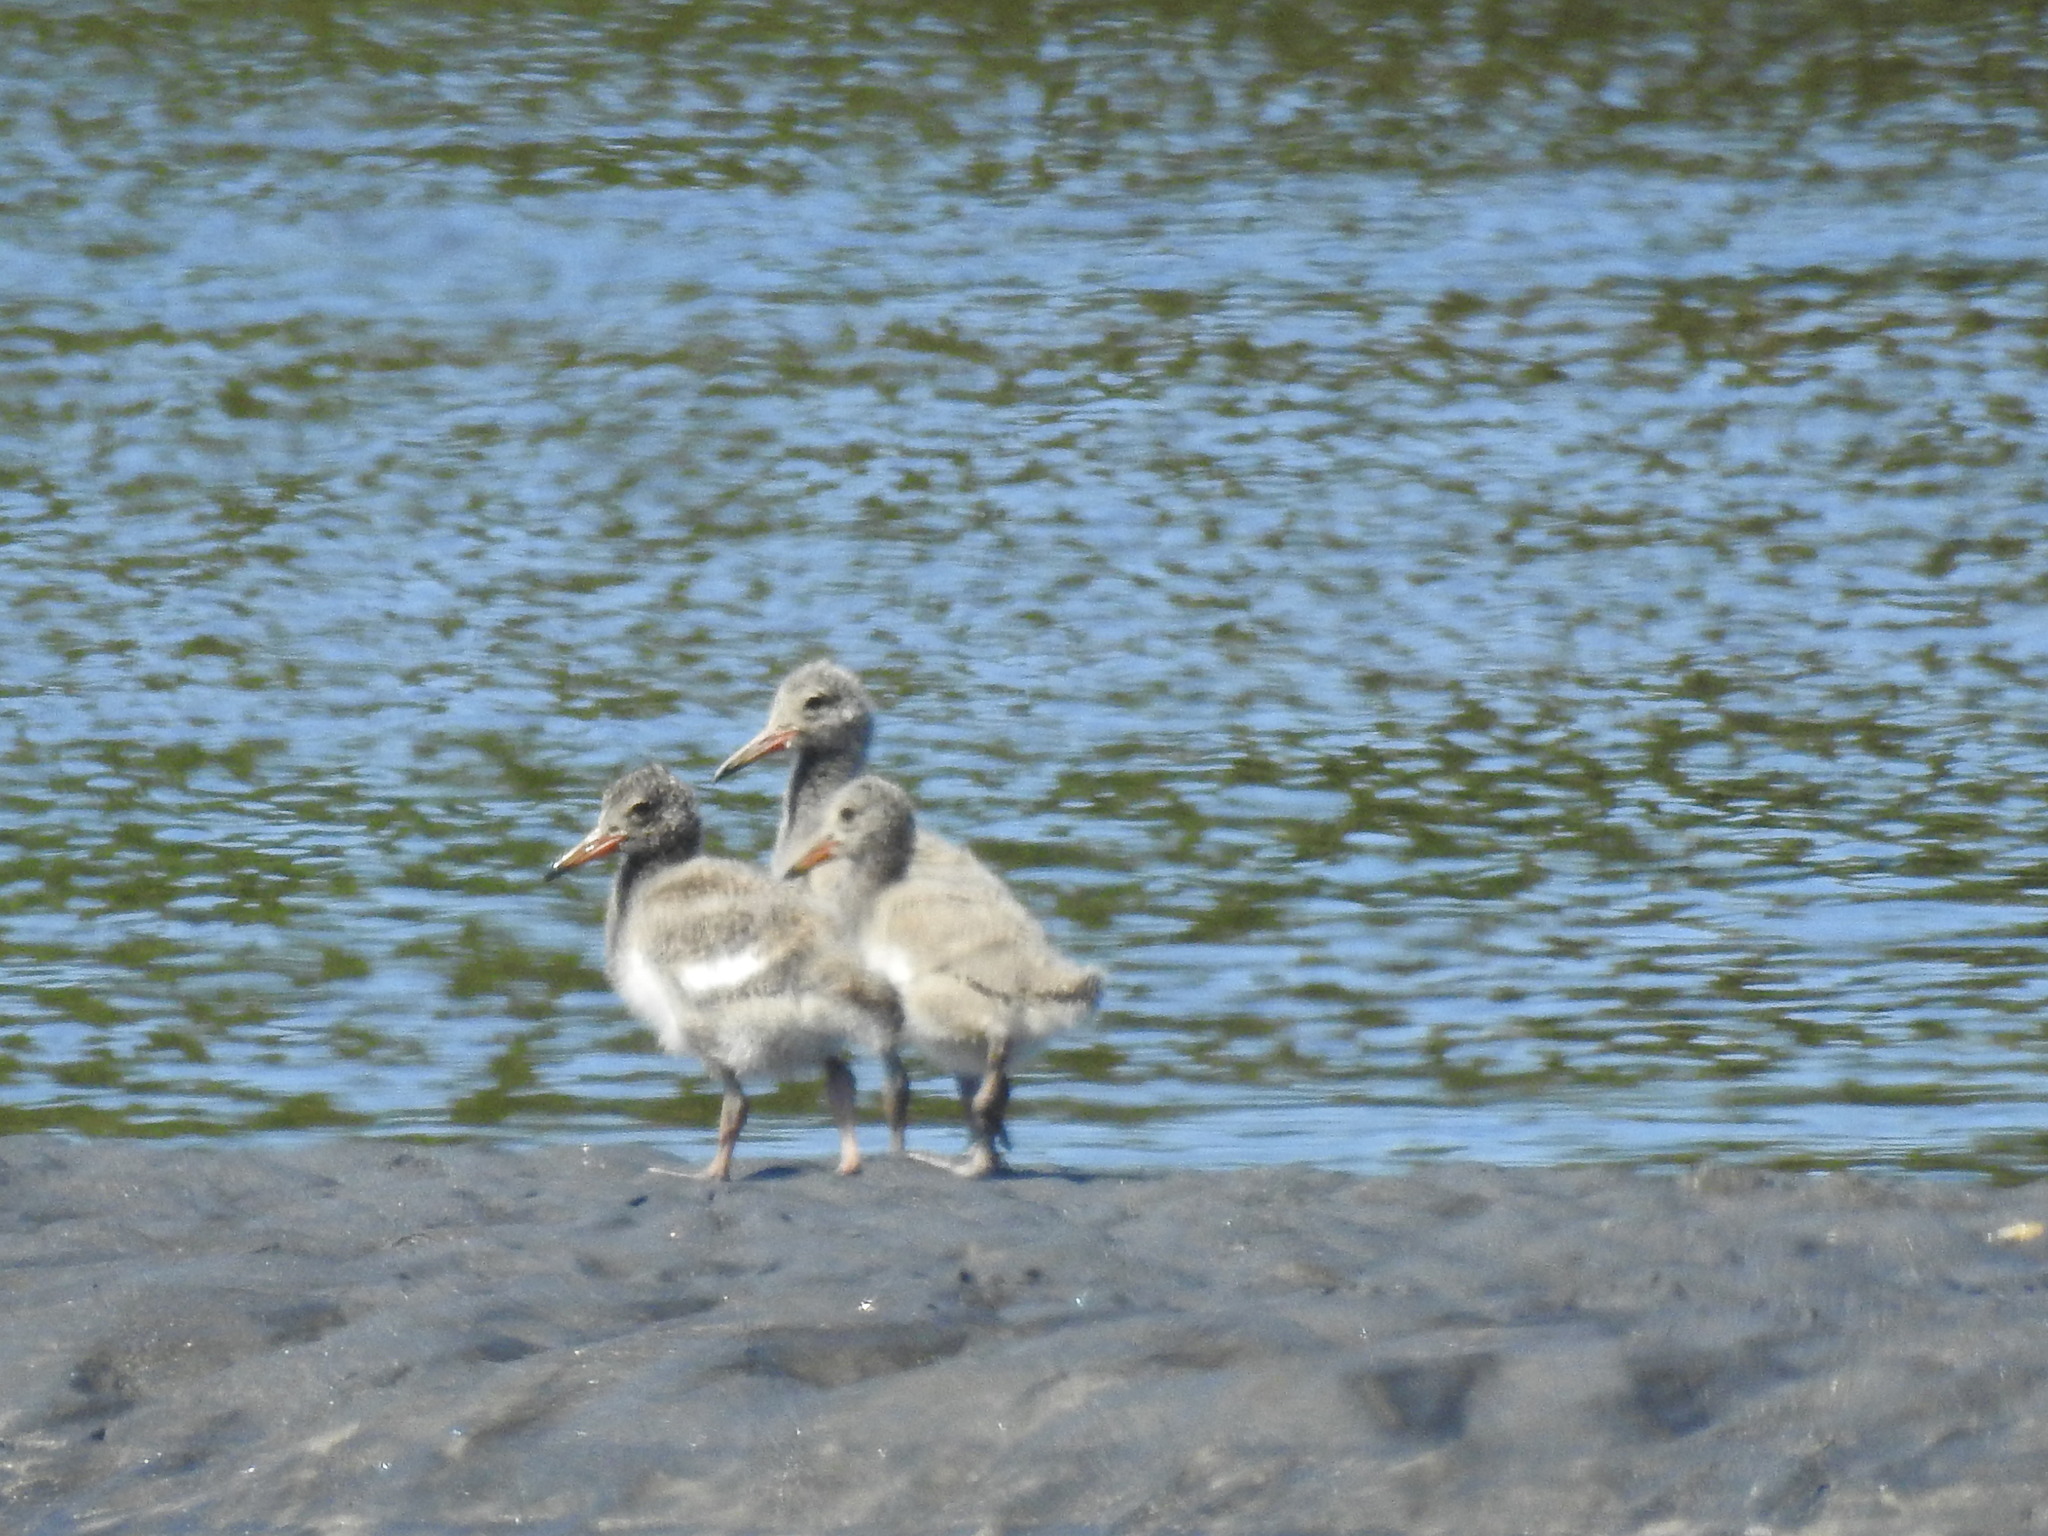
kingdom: Animalia
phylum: Chordata
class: Aves
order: Charadriiformes
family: Haematopodidae
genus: Haematopus
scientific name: Haematopus unicolor
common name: Variable oystercatcher
